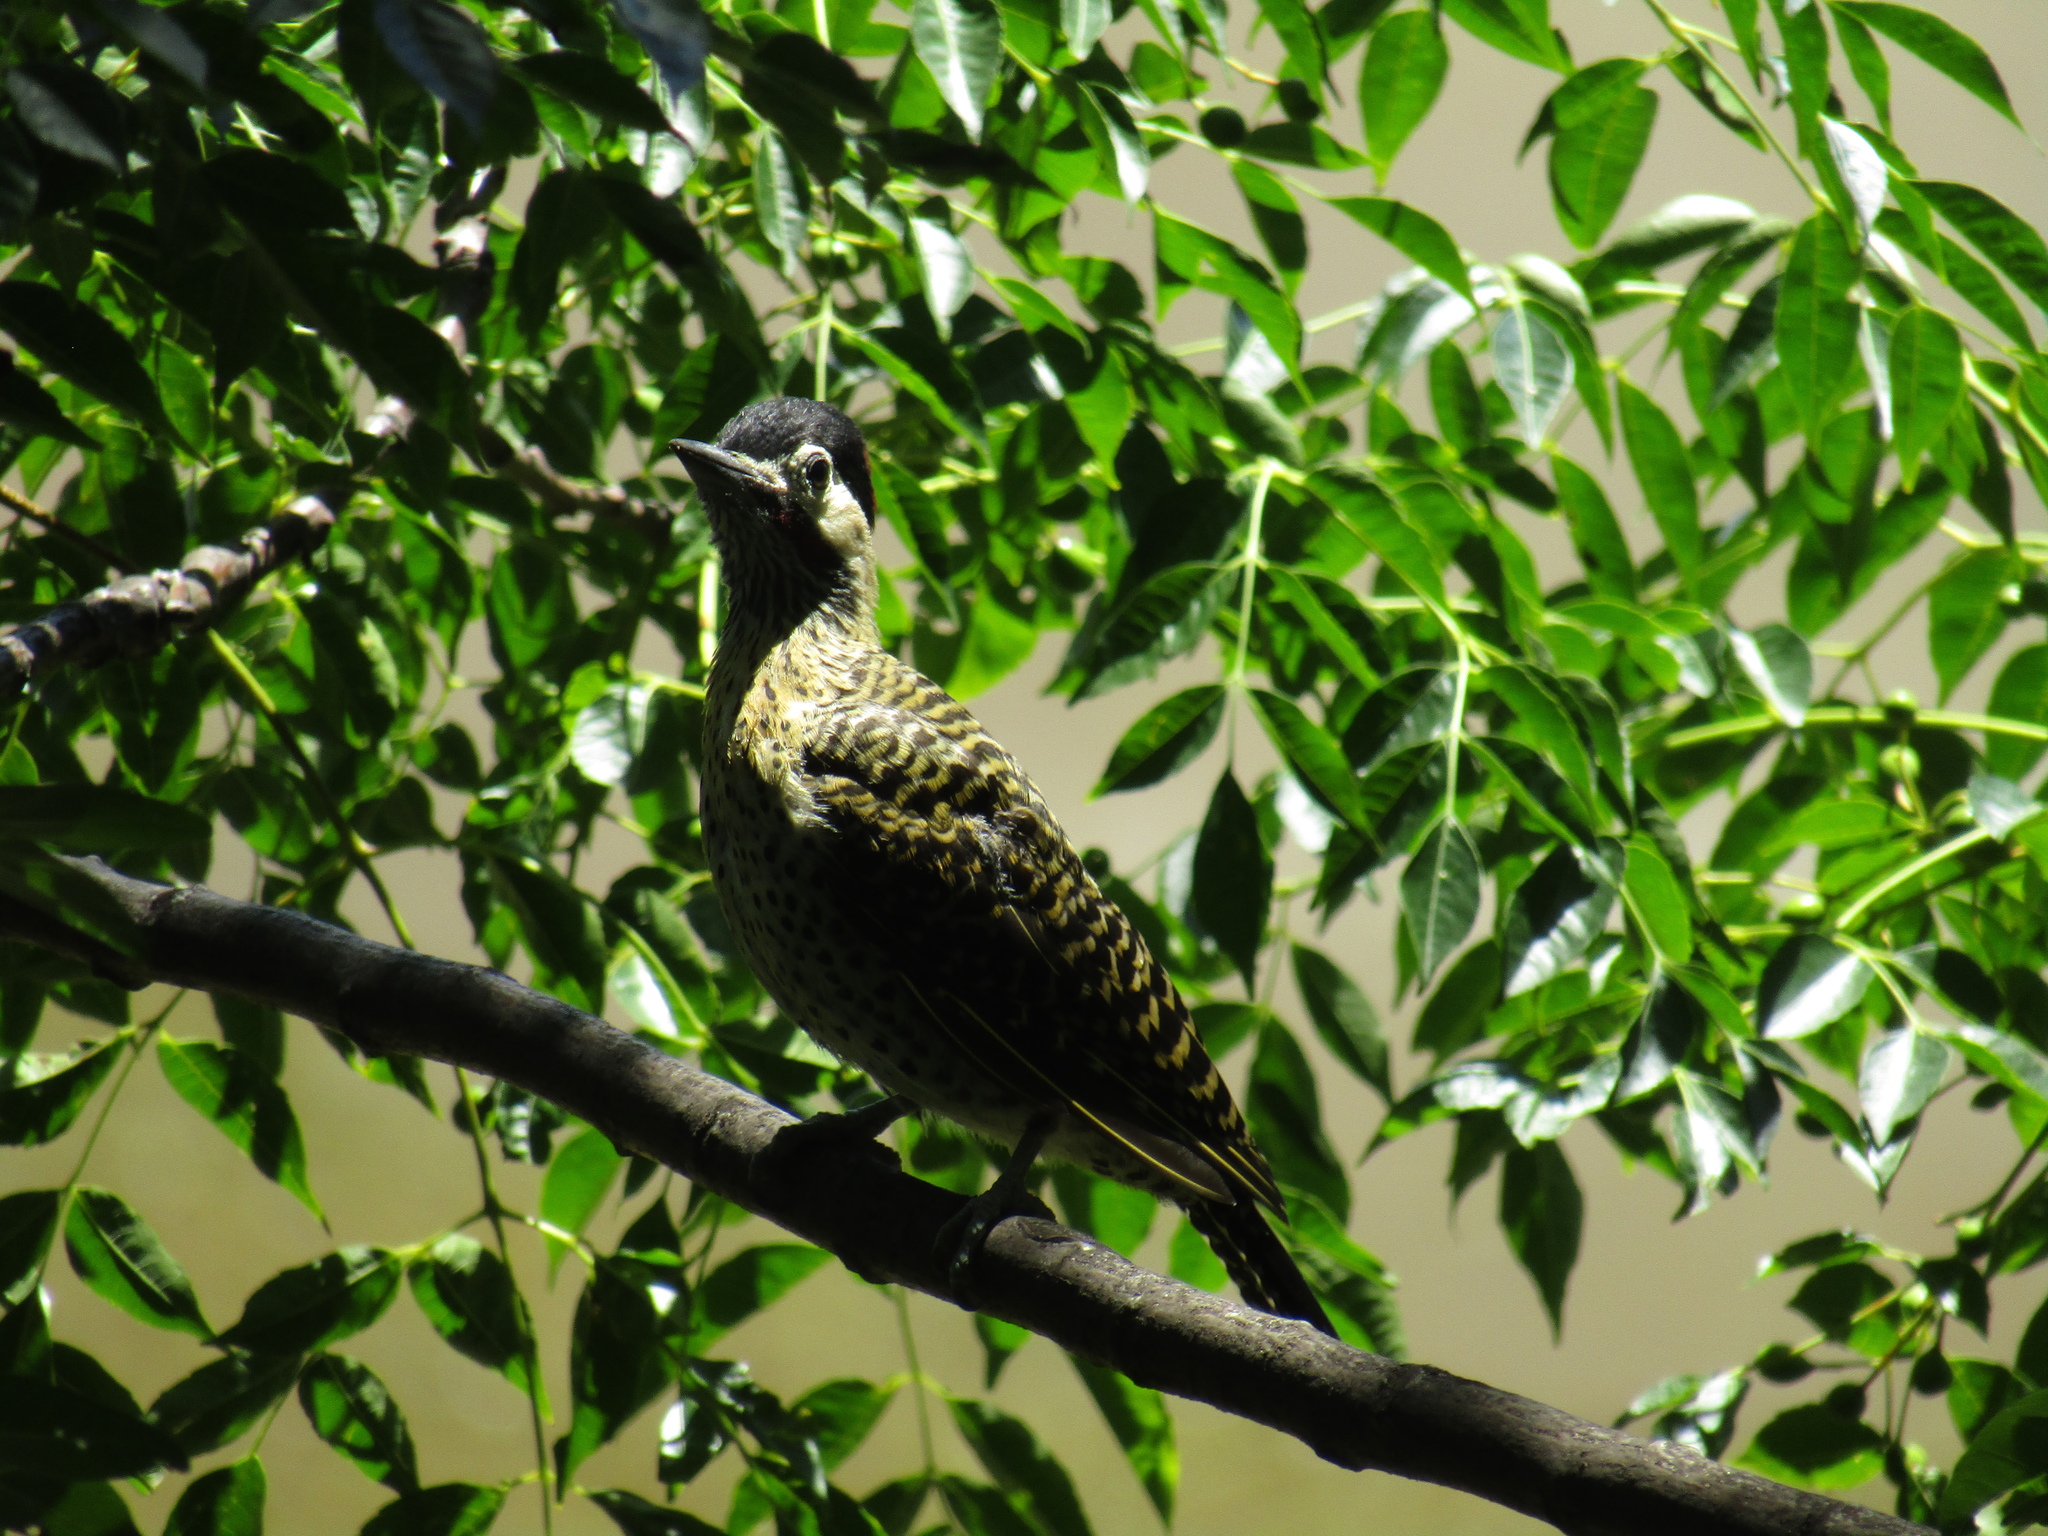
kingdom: Animalia
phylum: Chordata
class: Aves
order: Piciformes
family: Picidae
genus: Colaptes
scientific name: Colaptes melanochloros
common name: Green-barred woodpecker
